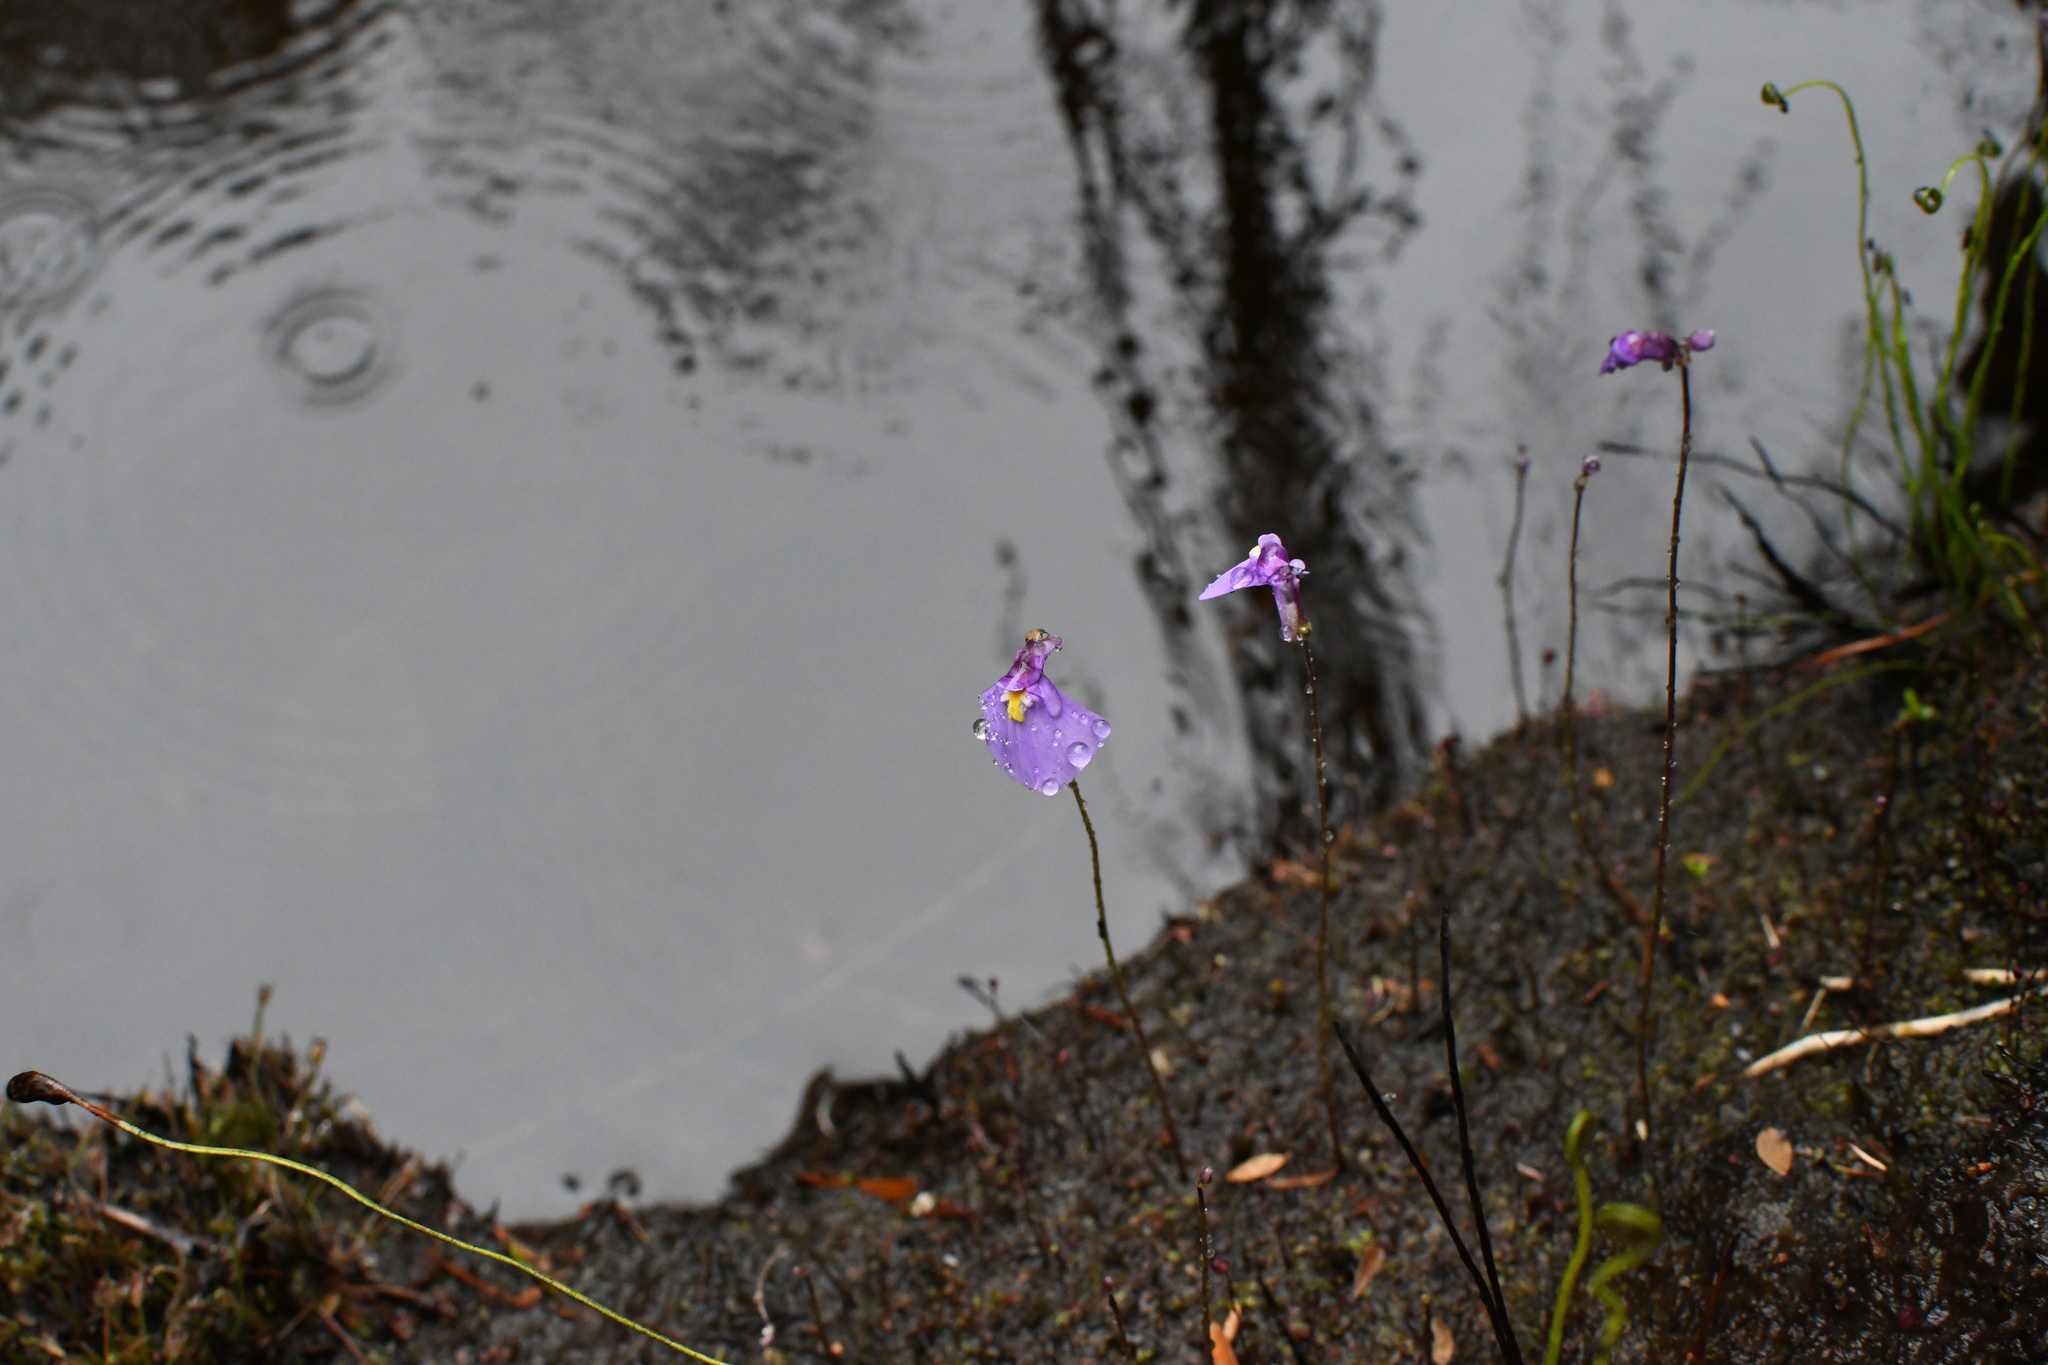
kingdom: Plantae
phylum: Tracheophyta
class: Magnoliopsida
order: Lamiales
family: Lentibulariaceae
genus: Utricularia
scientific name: Utricularia grampiana
